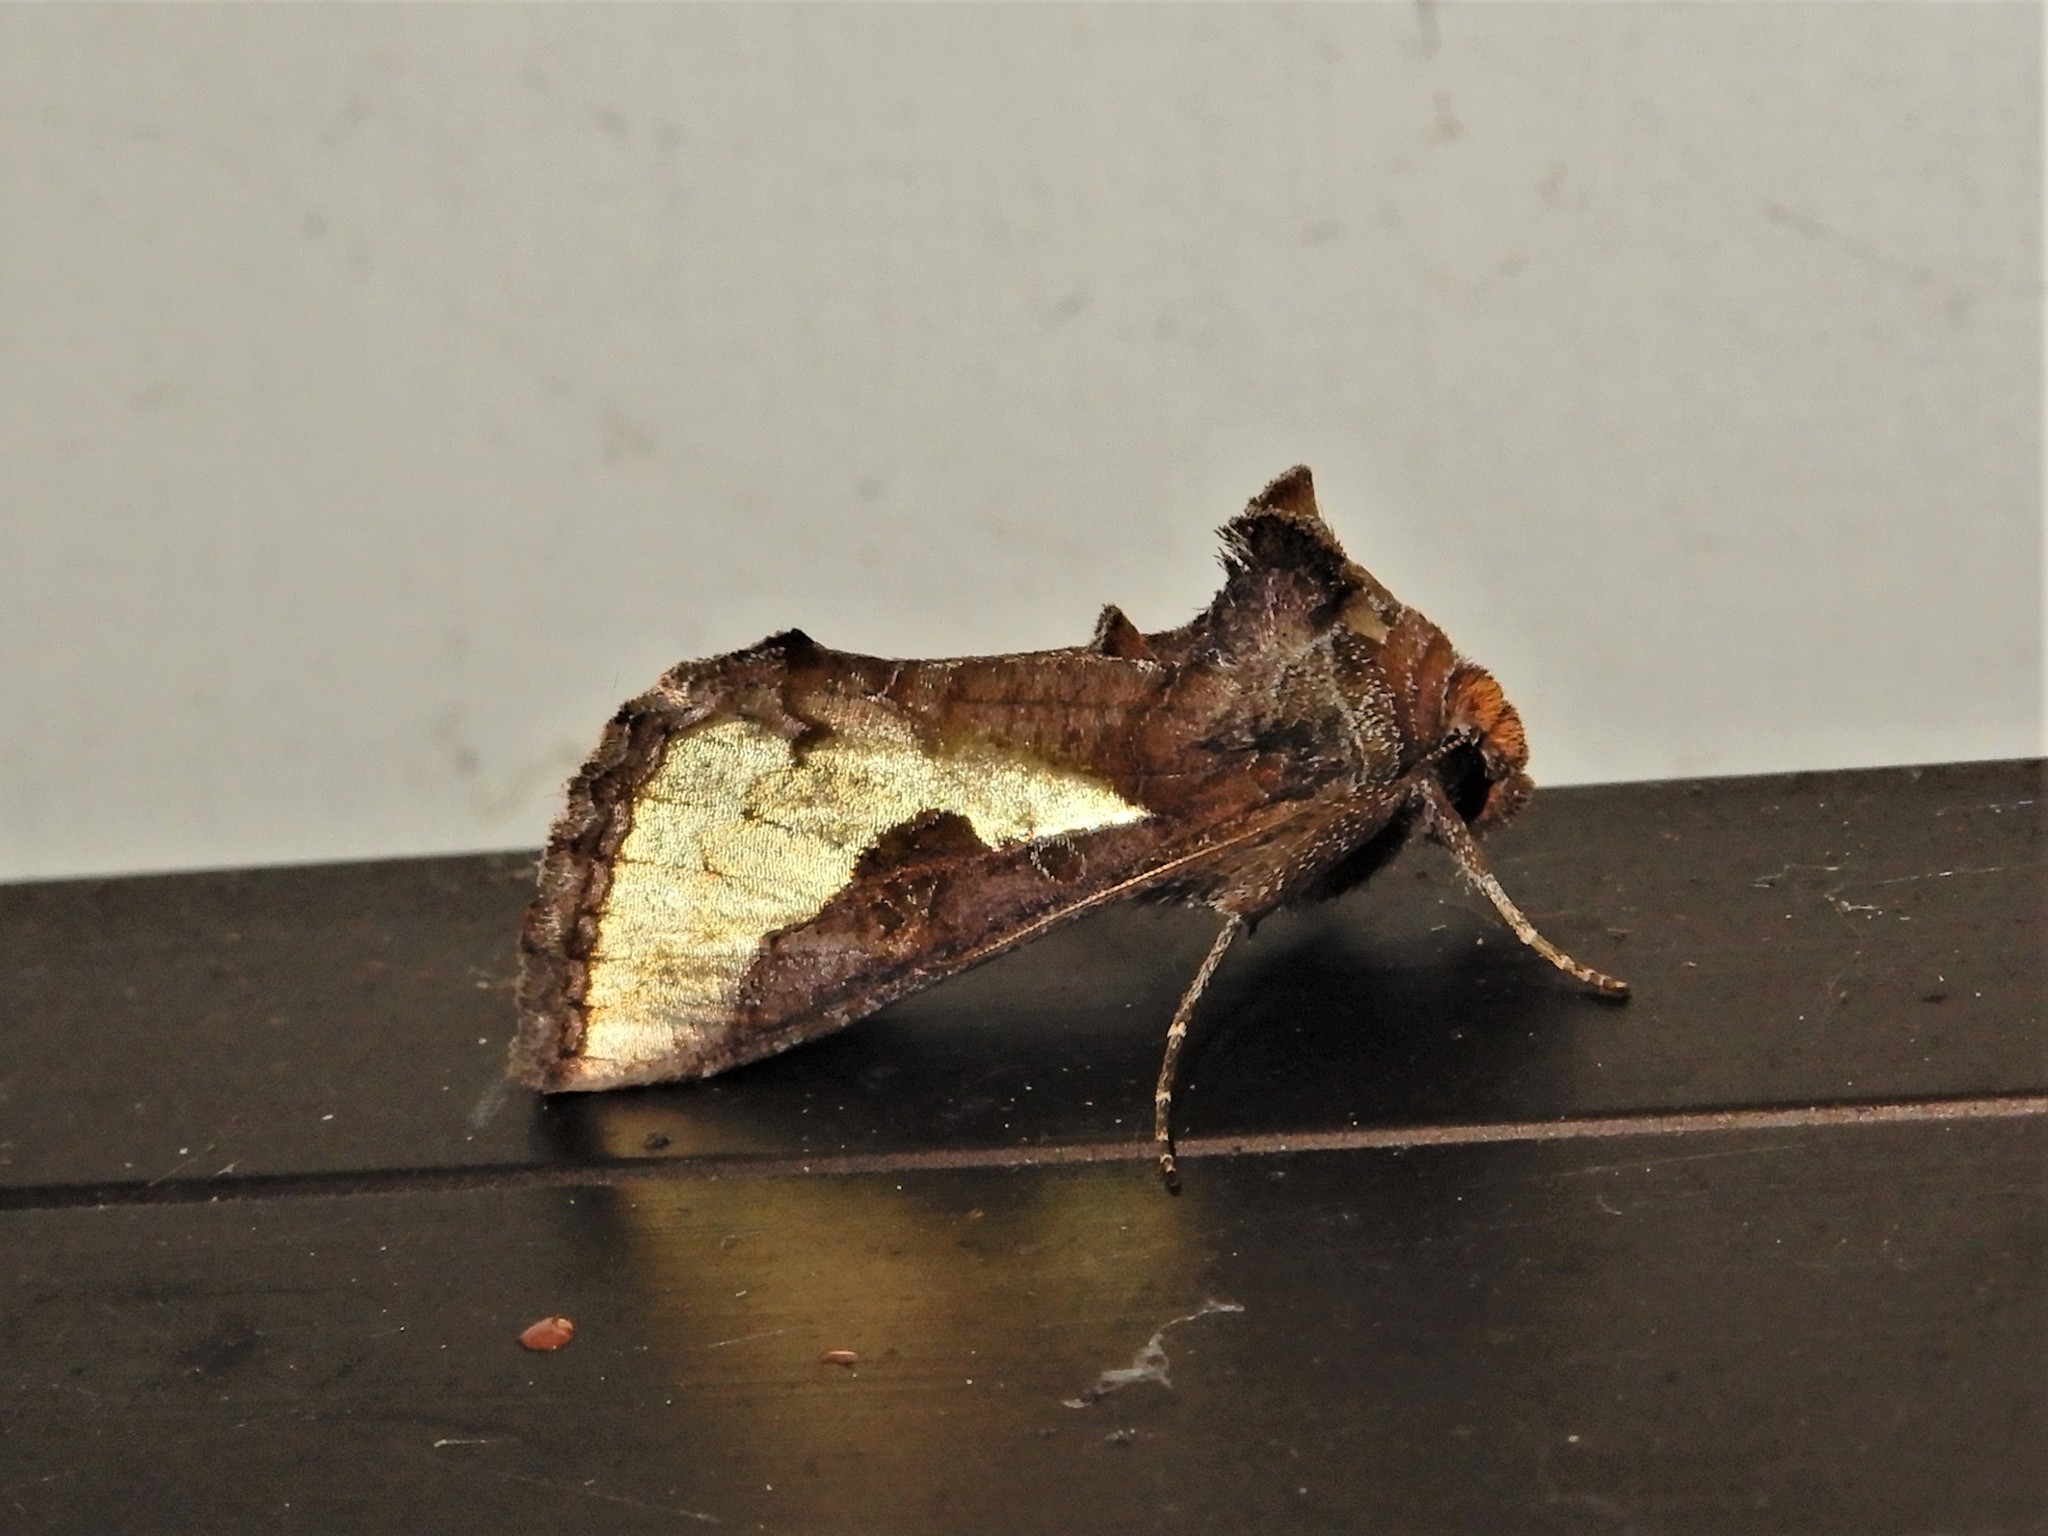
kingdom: Animalia
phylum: Arthropoda
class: Insecta
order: Lepidoptera
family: Noctuidae
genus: Thysanoplusia
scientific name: Thysanoplusia orichalcea
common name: Slender burnished brass, golden plusia
